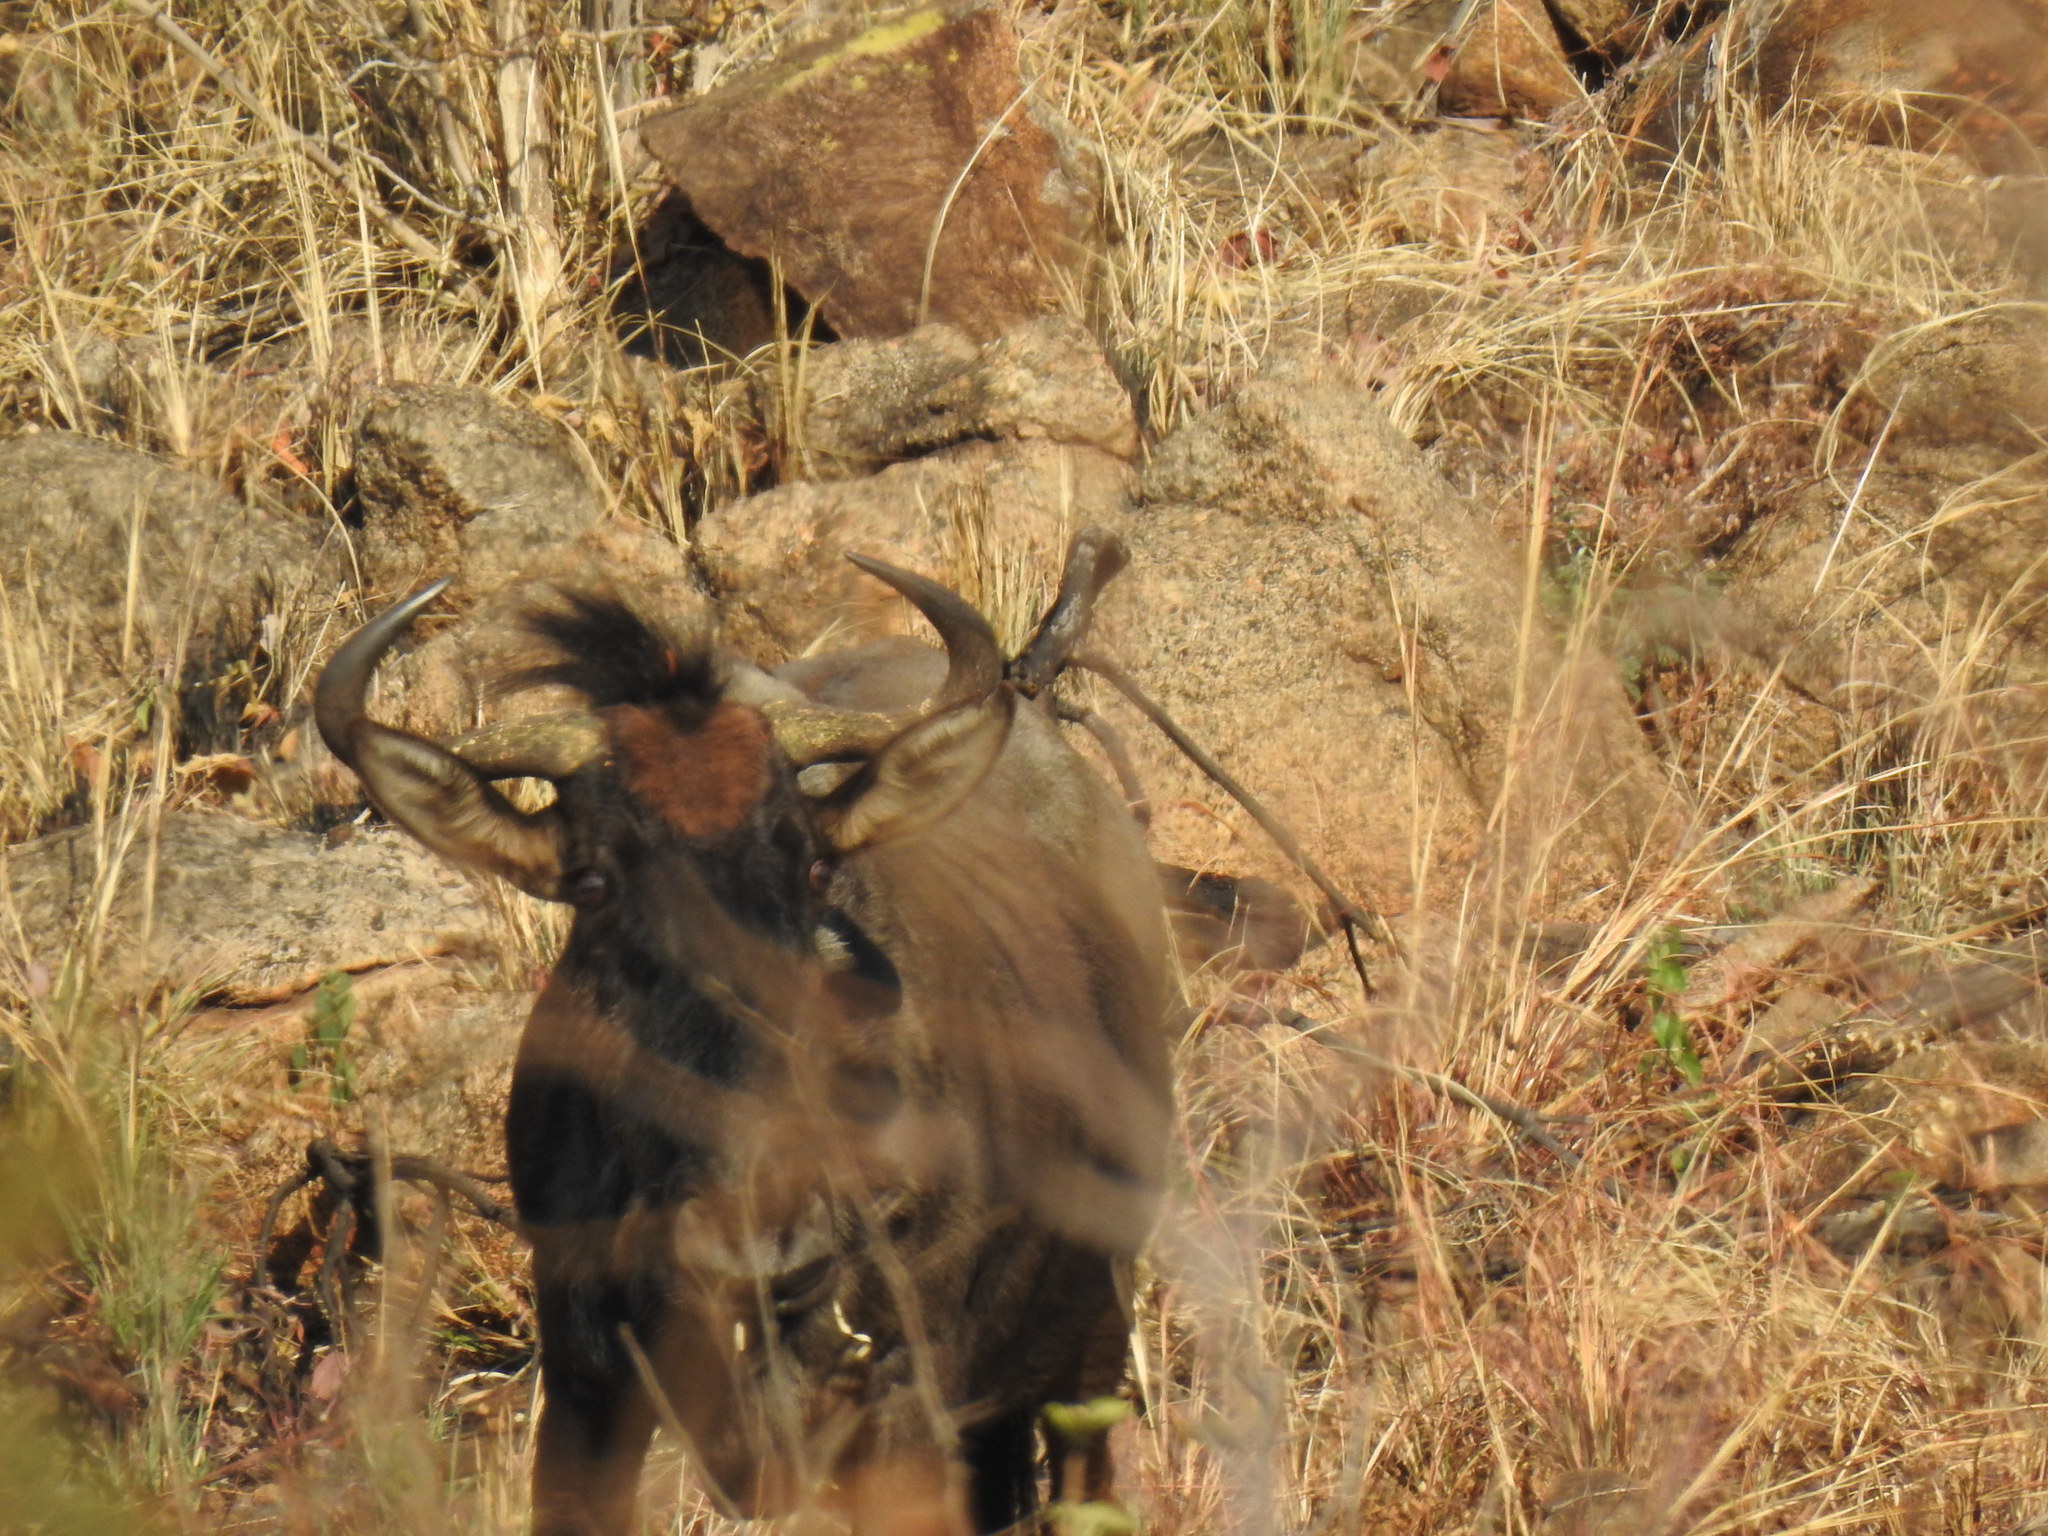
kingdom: Animalia
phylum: Chordata
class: Mammalia
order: Artiodactyla
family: Bovidae
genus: Connochaetes
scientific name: Connochaetes taurinus
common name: Blue wildebeest
